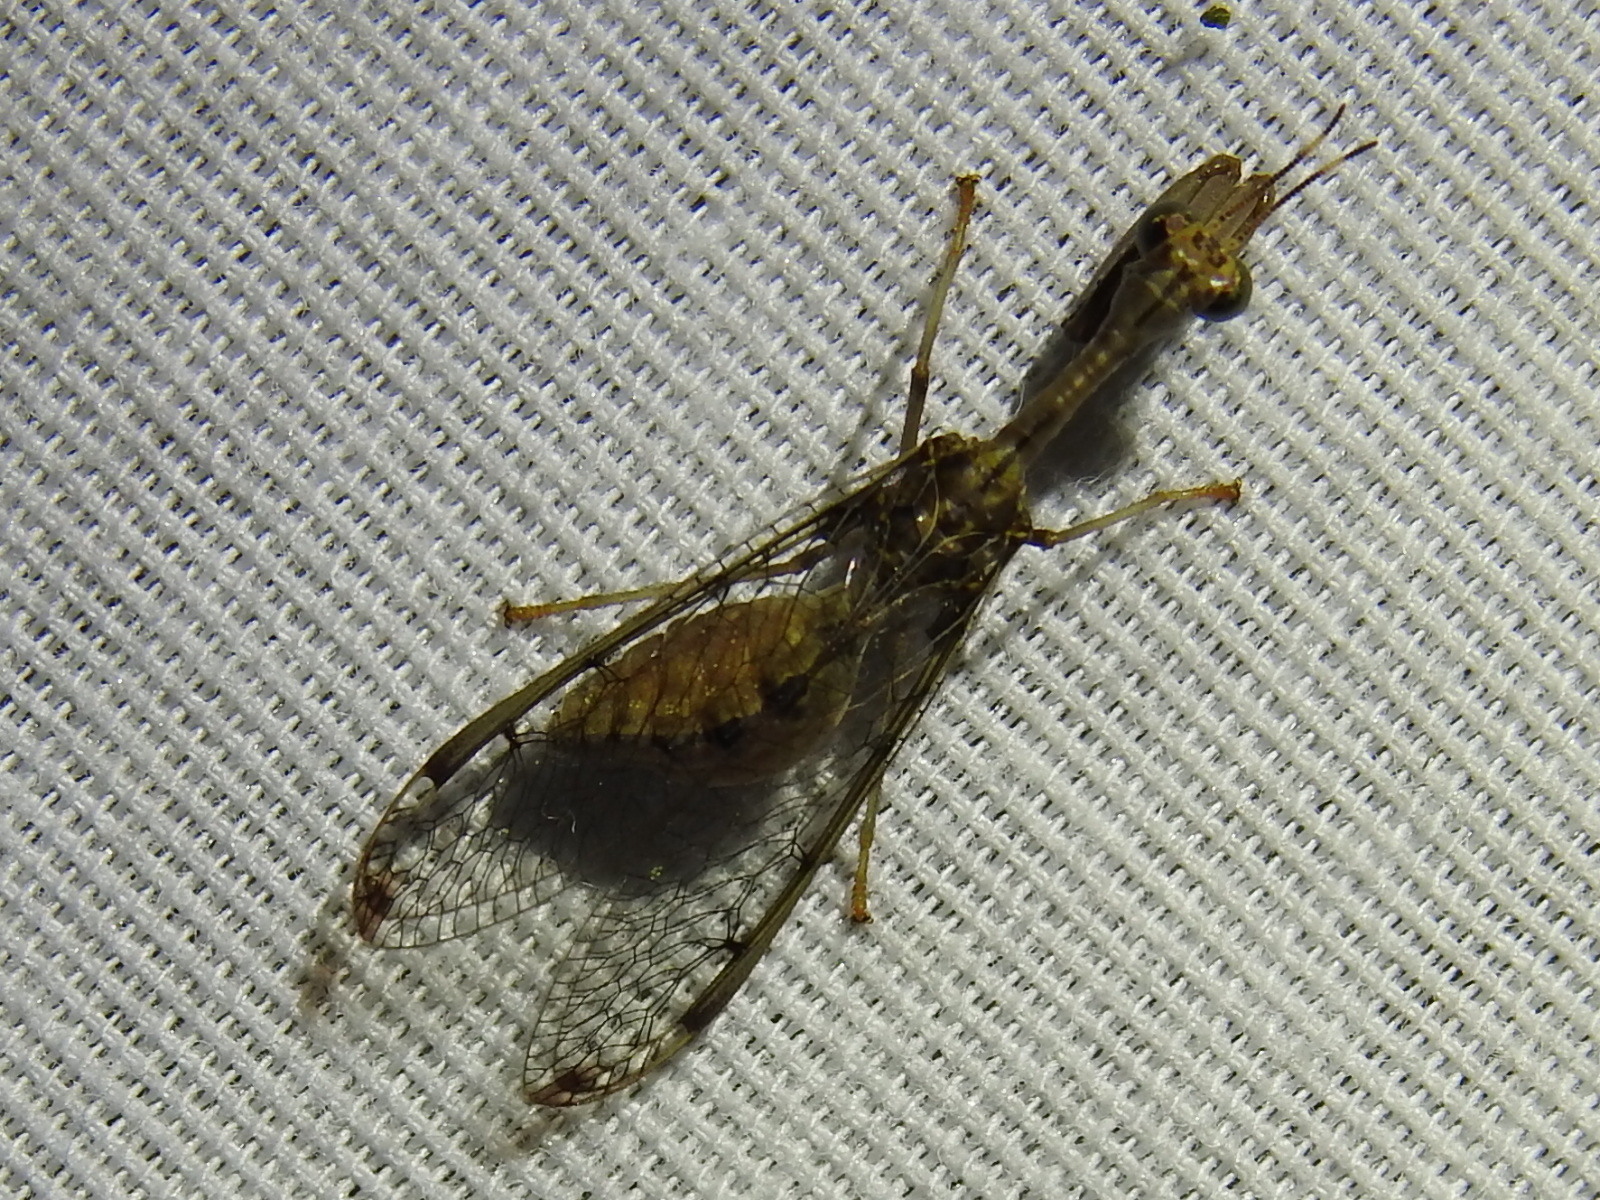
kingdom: Animalia
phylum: Arthropoda
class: Insecta
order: Neuroptera
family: Mantispidae
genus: Dicromantispa
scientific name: Dicromantispa interrupta
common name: Four-spotted mantidfly
